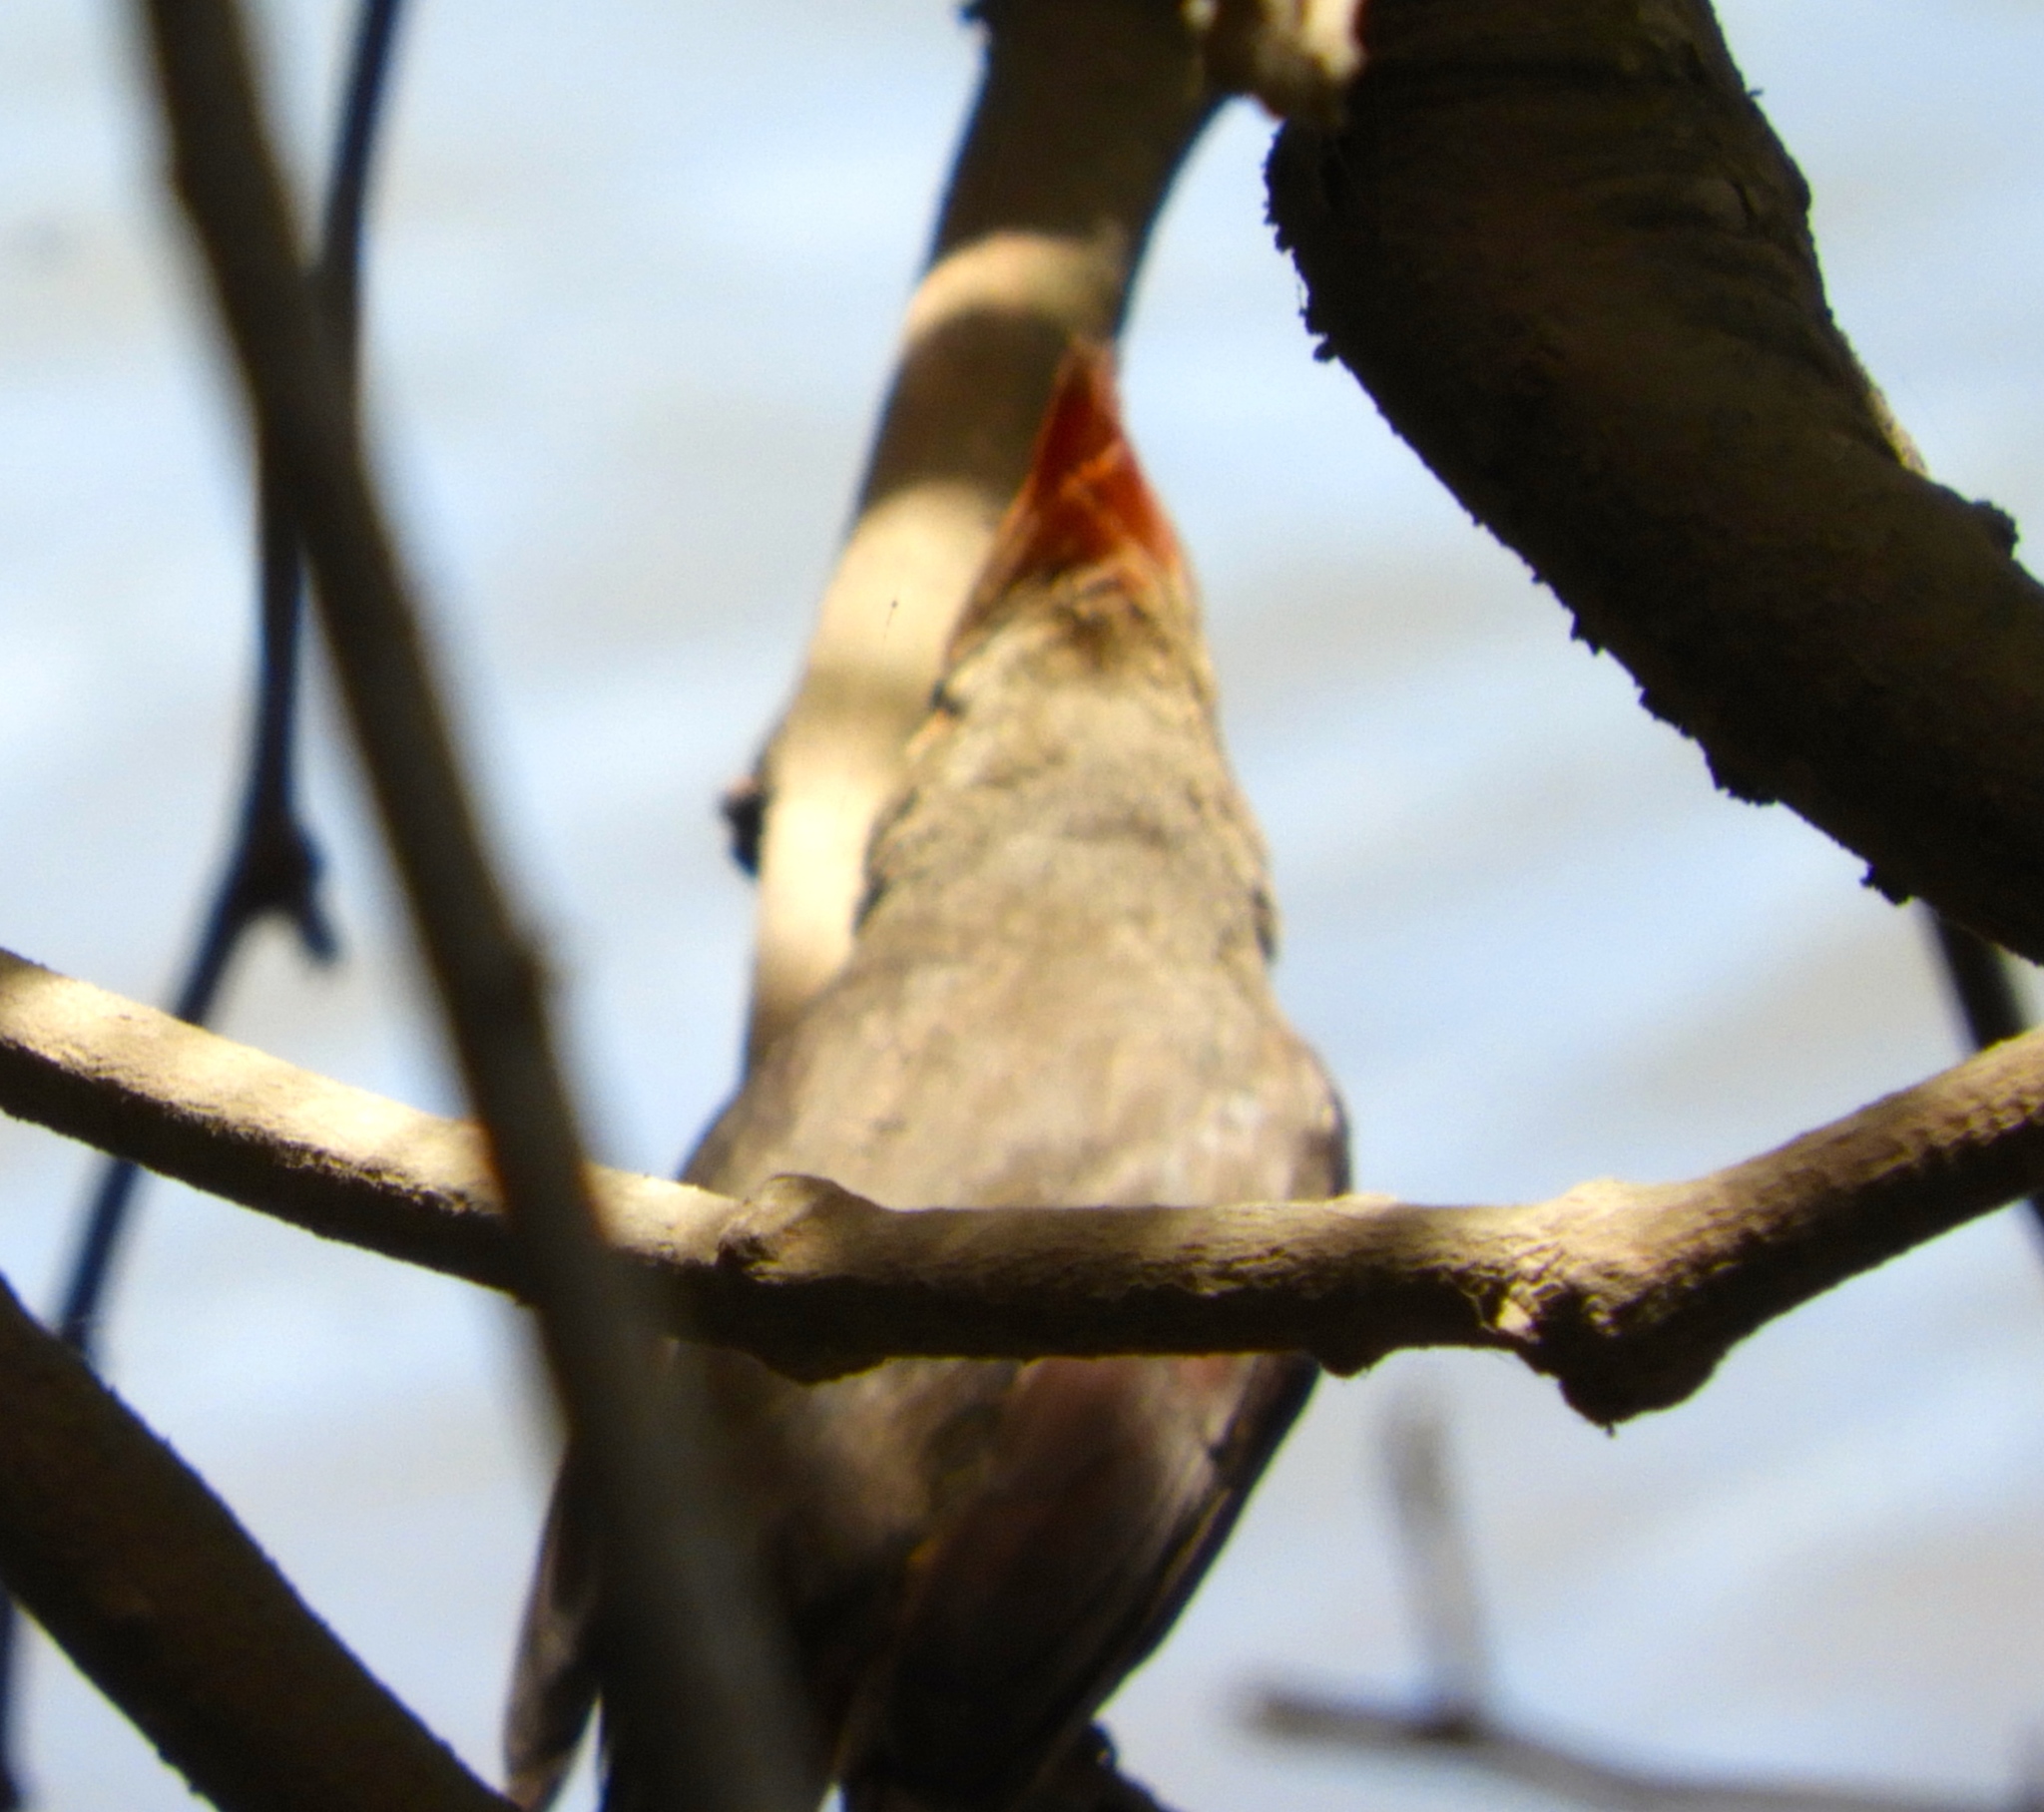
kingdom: Animalia
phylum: Chordata
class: Aves
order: Passeriformes
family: Cardinalidae
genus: Cardinalis
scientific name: Cardinalis cardinalis
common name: Northern cardinal
